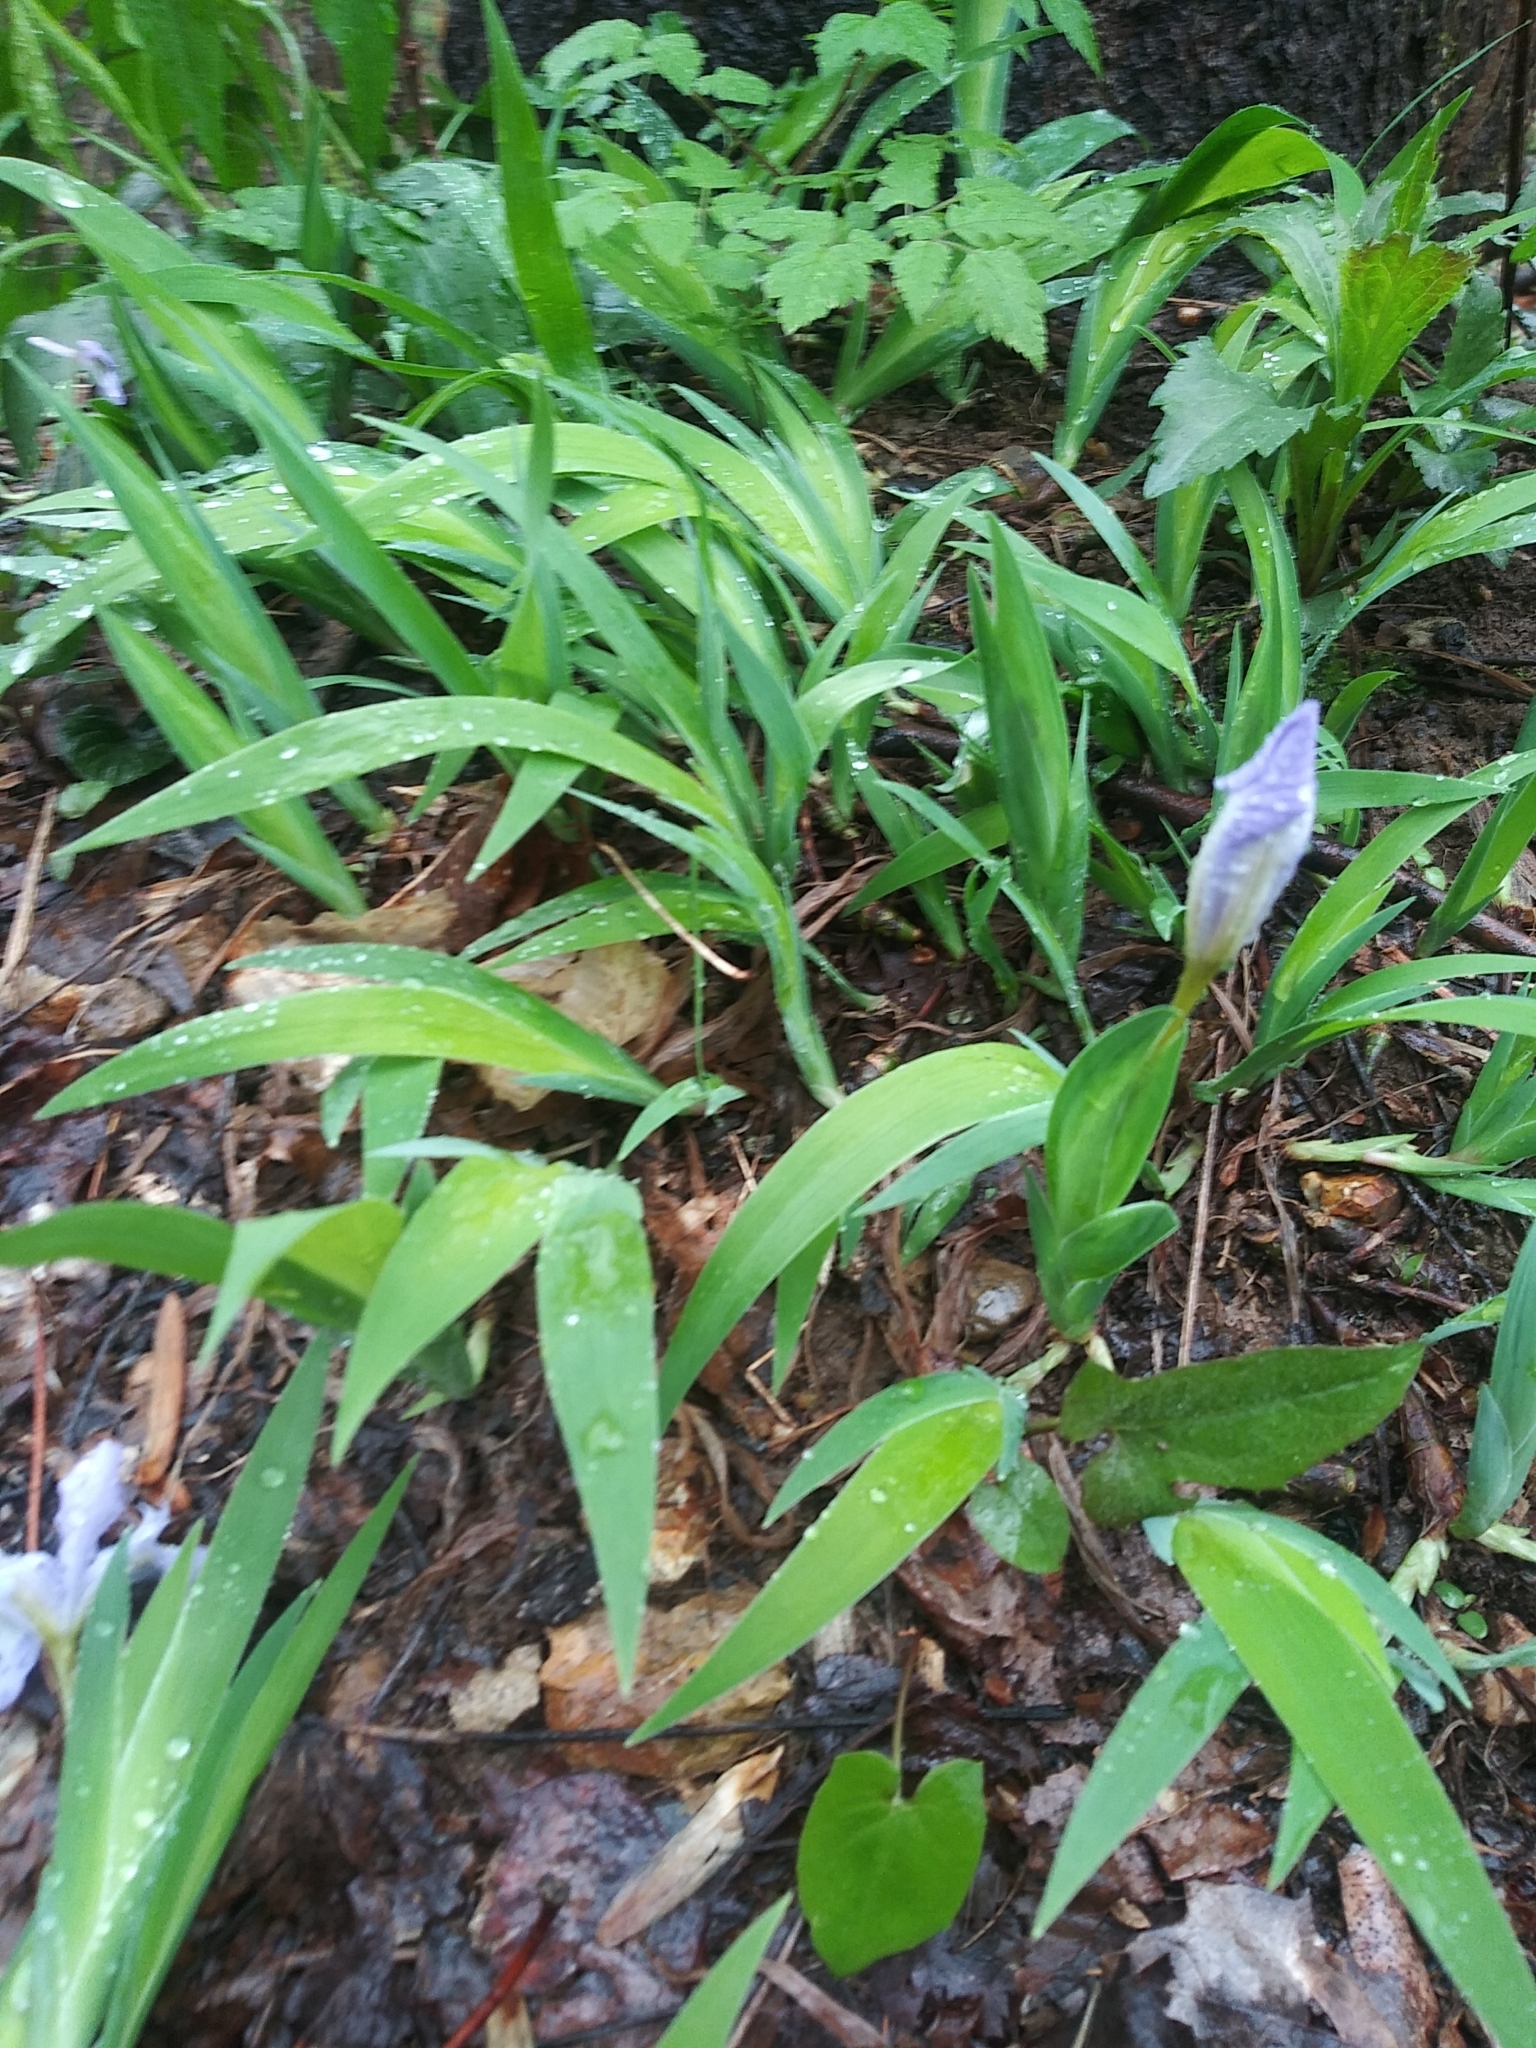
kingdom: Plantae
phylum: Tracheophyta
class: Liliopsida
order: Asparagales
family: Iridaceae
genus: Iris
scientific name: Iris cristata
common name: Crested iris
